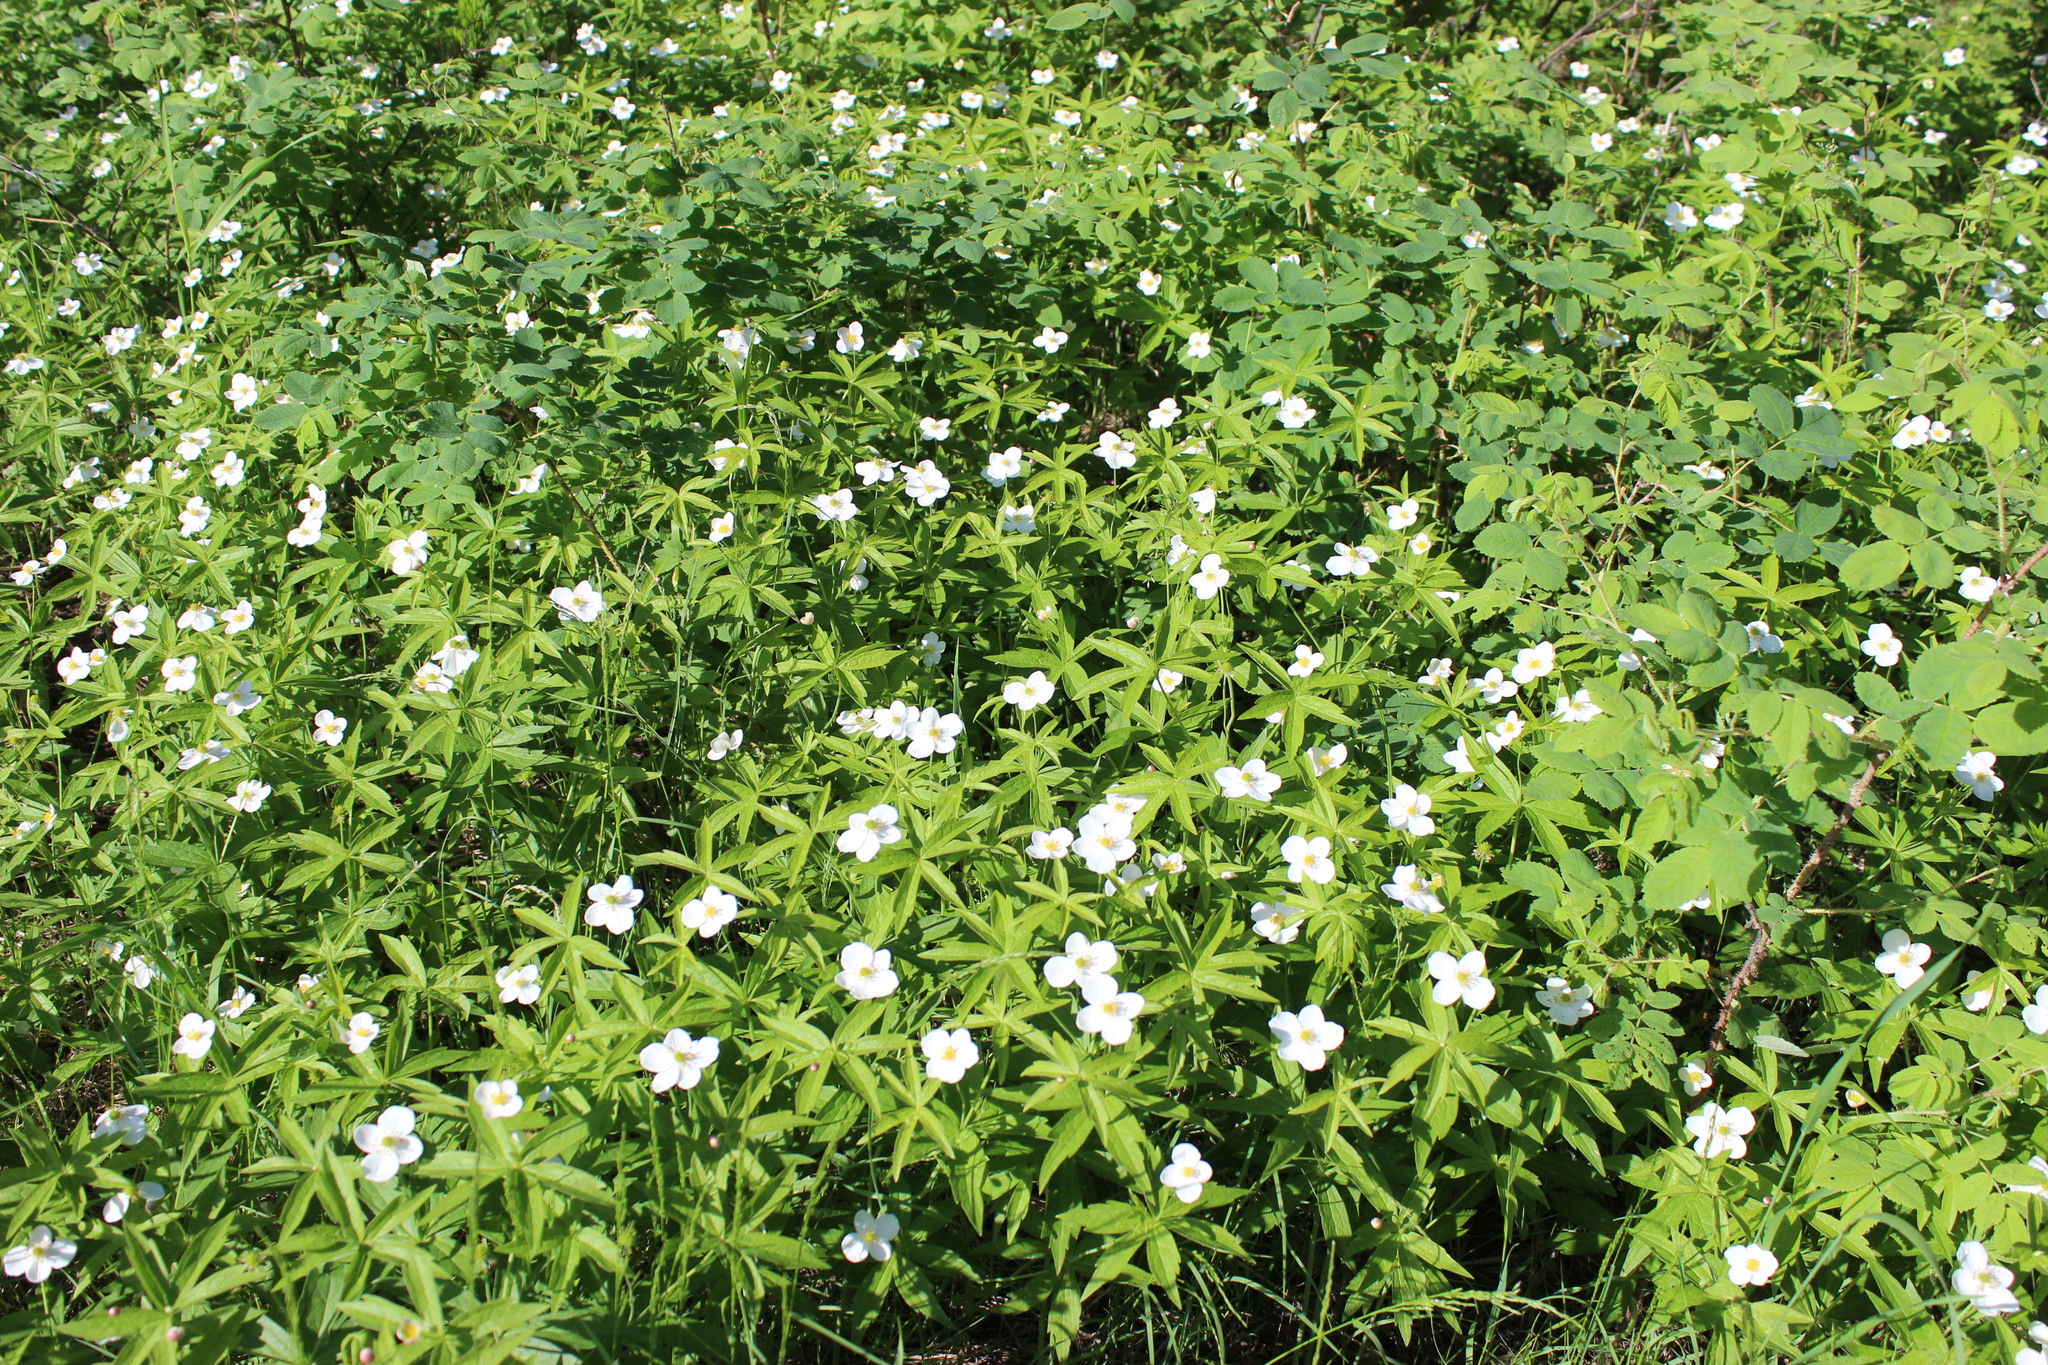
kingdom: Plantae
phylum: Tracheophyta
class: Magnoliopsida
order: Ranunculales
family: Ranunculaceae
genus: Anemonastrum
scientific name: Anemonastrum dichotomum
